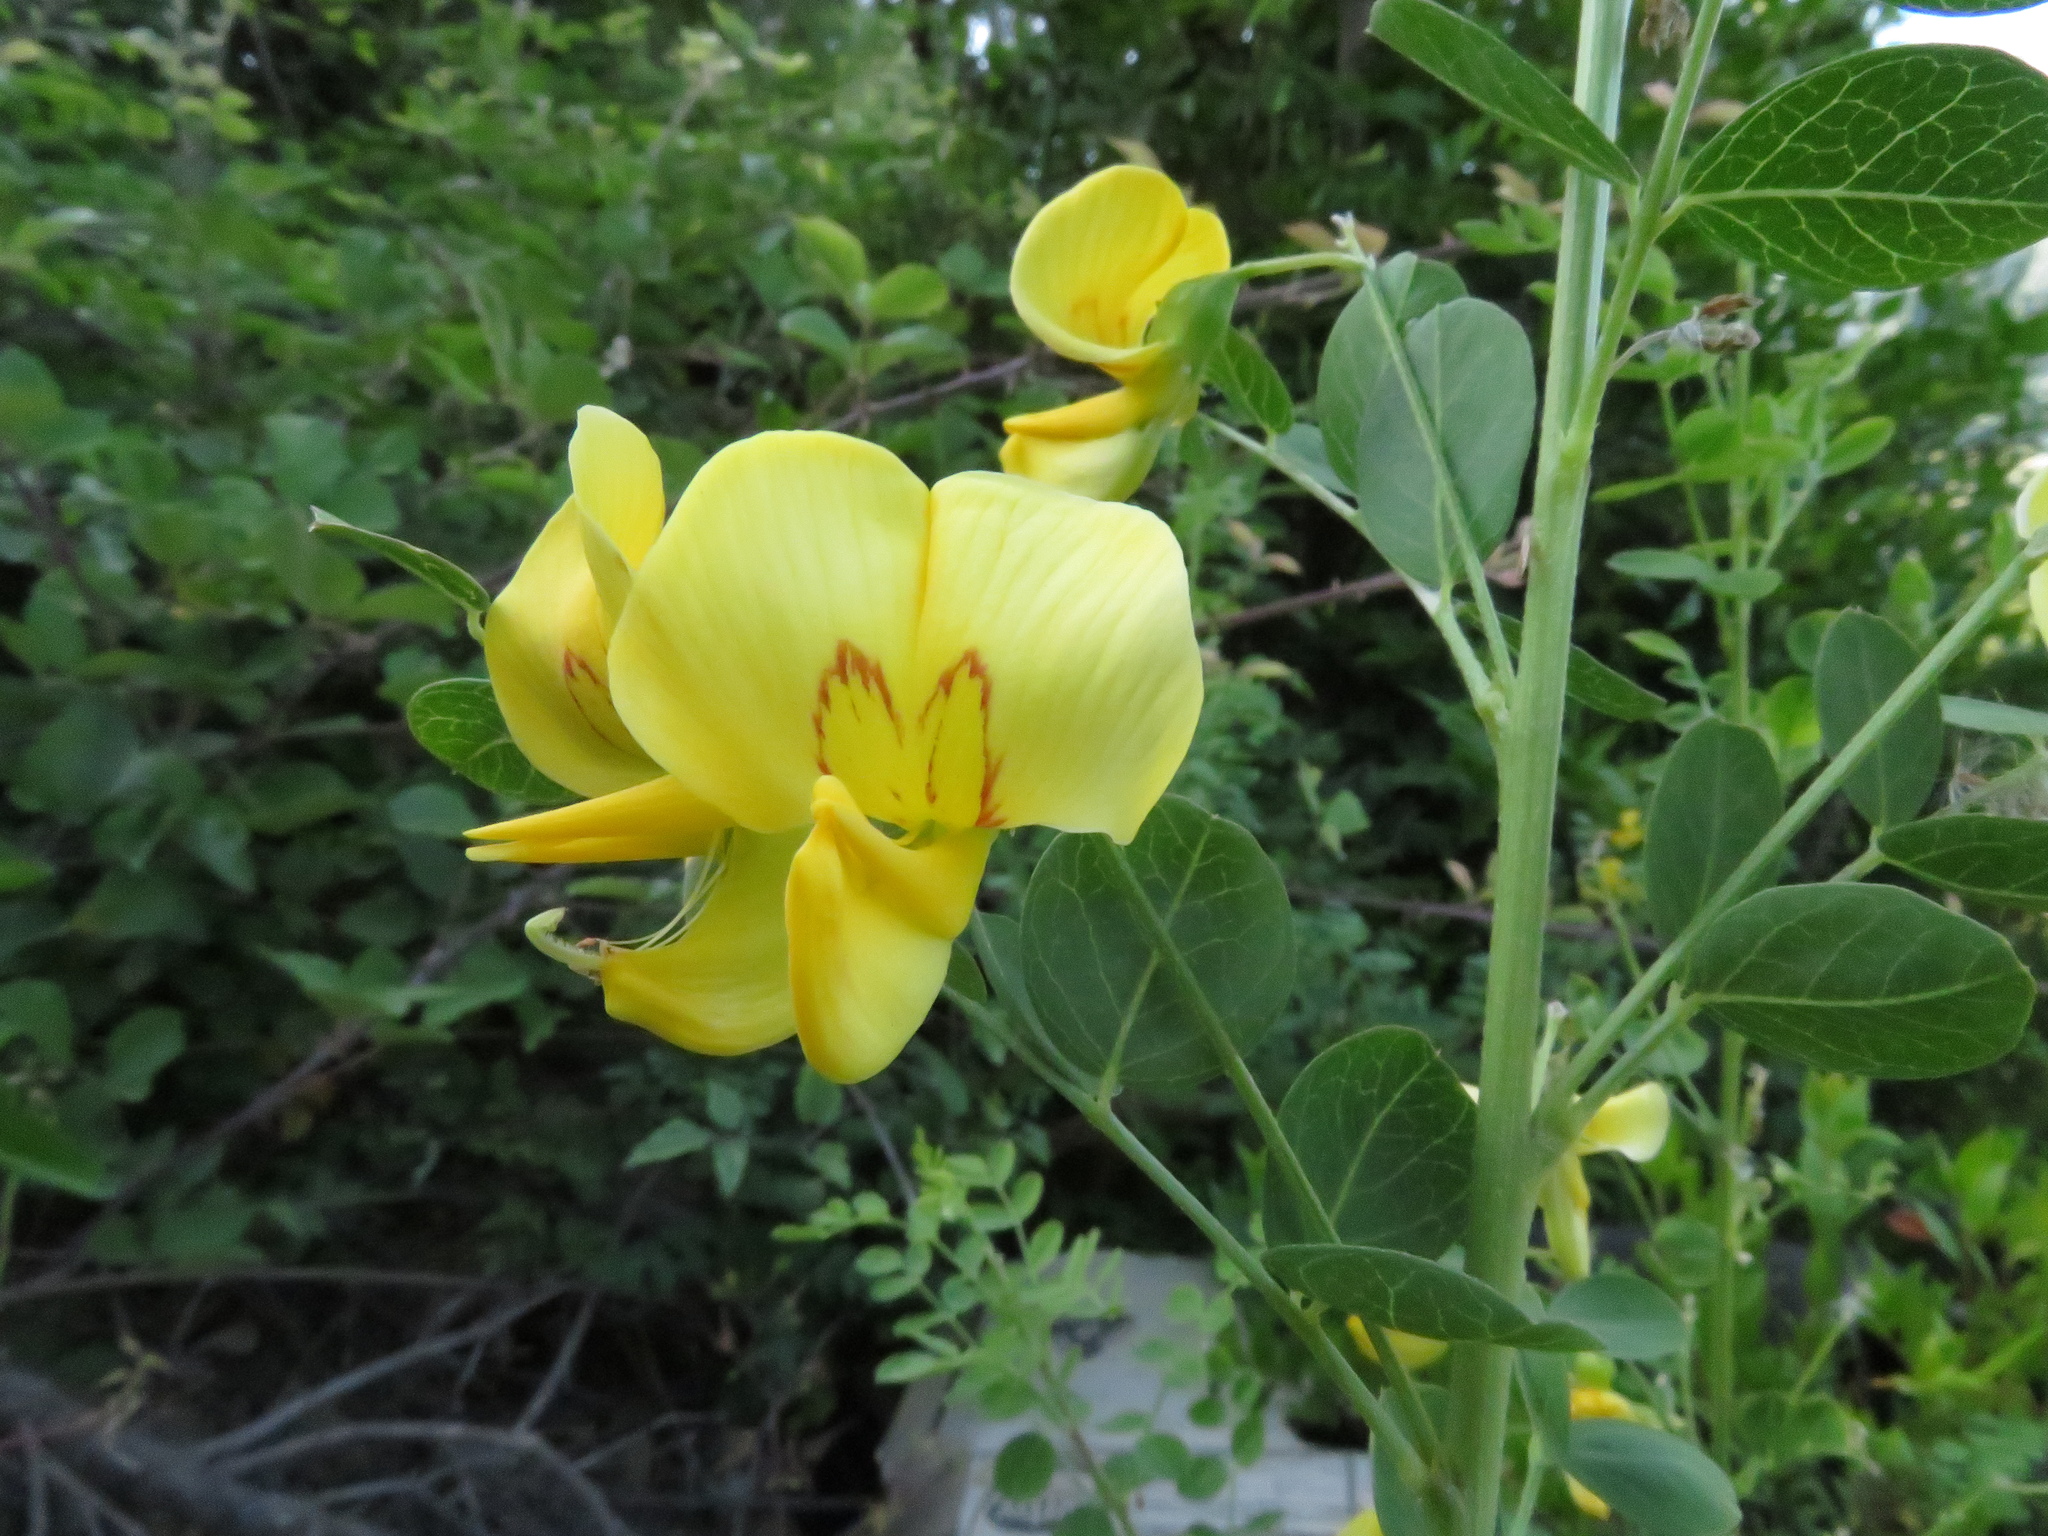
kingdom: Plantae
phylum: Tracheophyta
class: Magnoliopsida
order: Fabales
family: Fabaceae
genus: Colutea
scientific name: Colutea arborescens
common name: Bladder-senna
